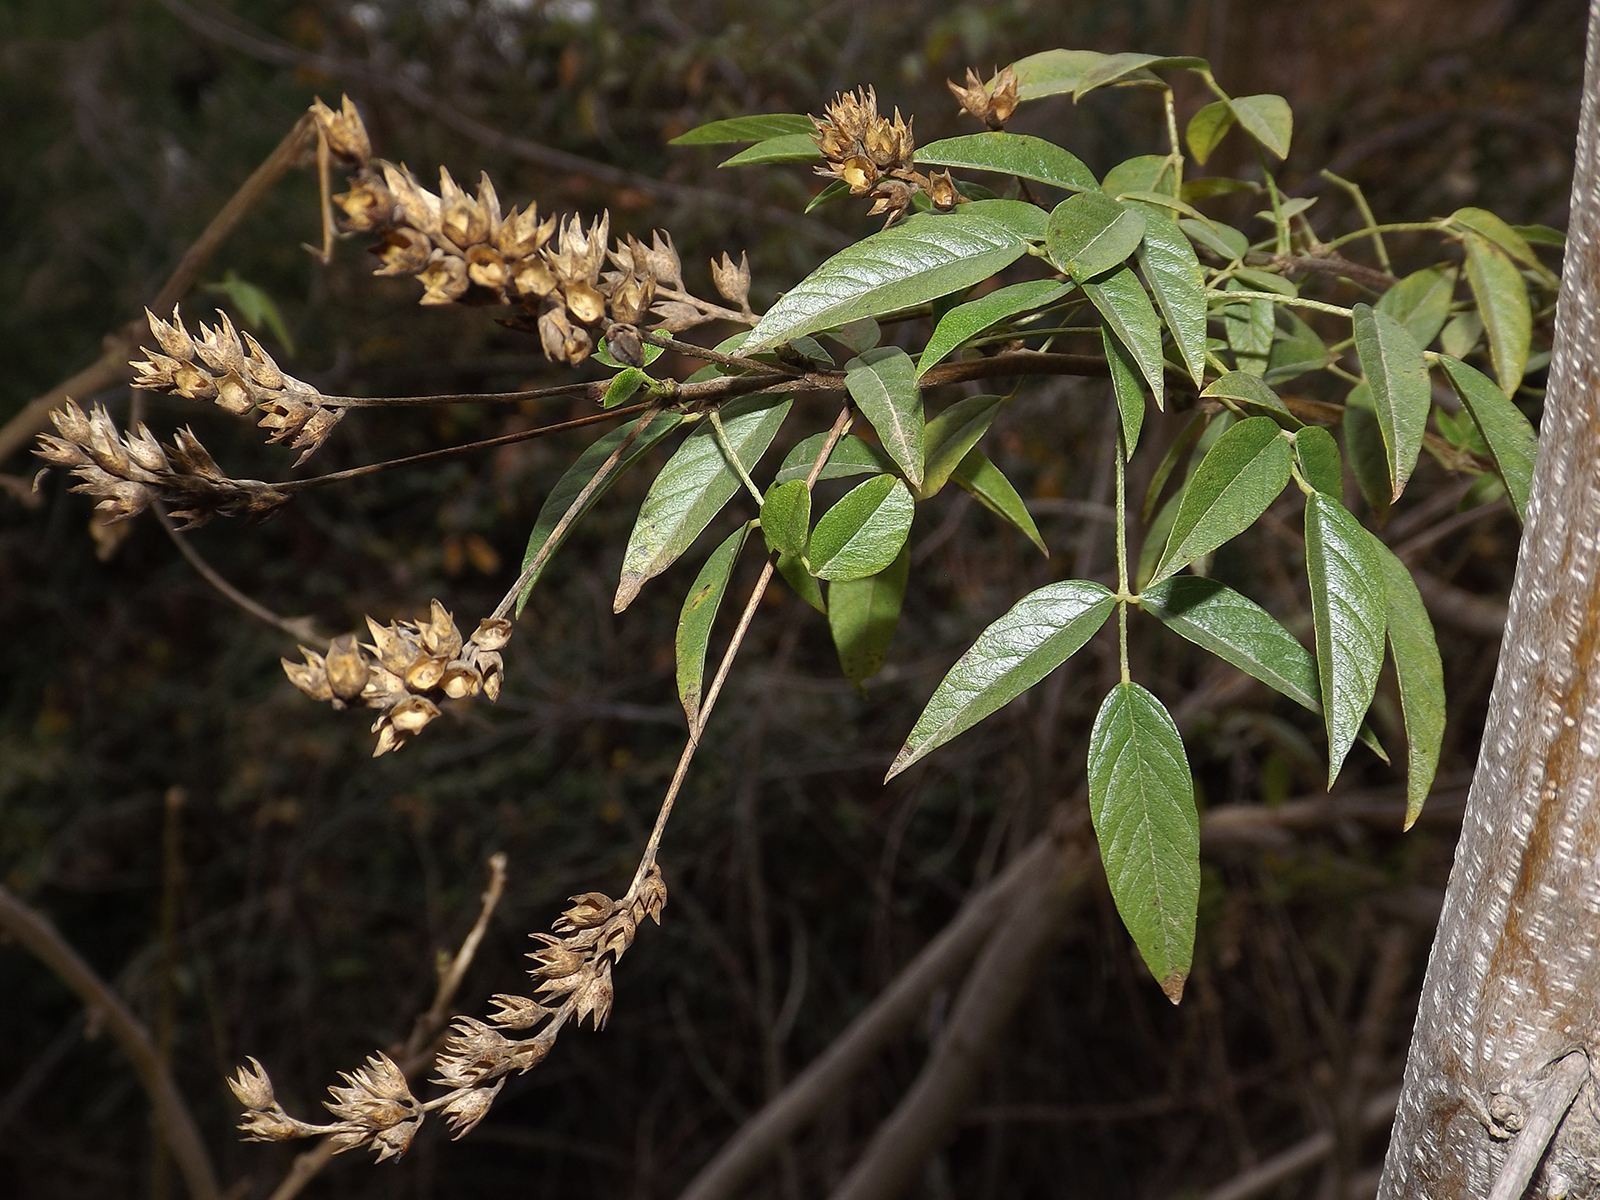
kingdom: Plantae
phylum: Tracheophyta
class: Magnoliopsida
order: Fabales
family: Fabaceae
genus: Psoralea
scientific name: Psoralea Otholobium glandulosum
